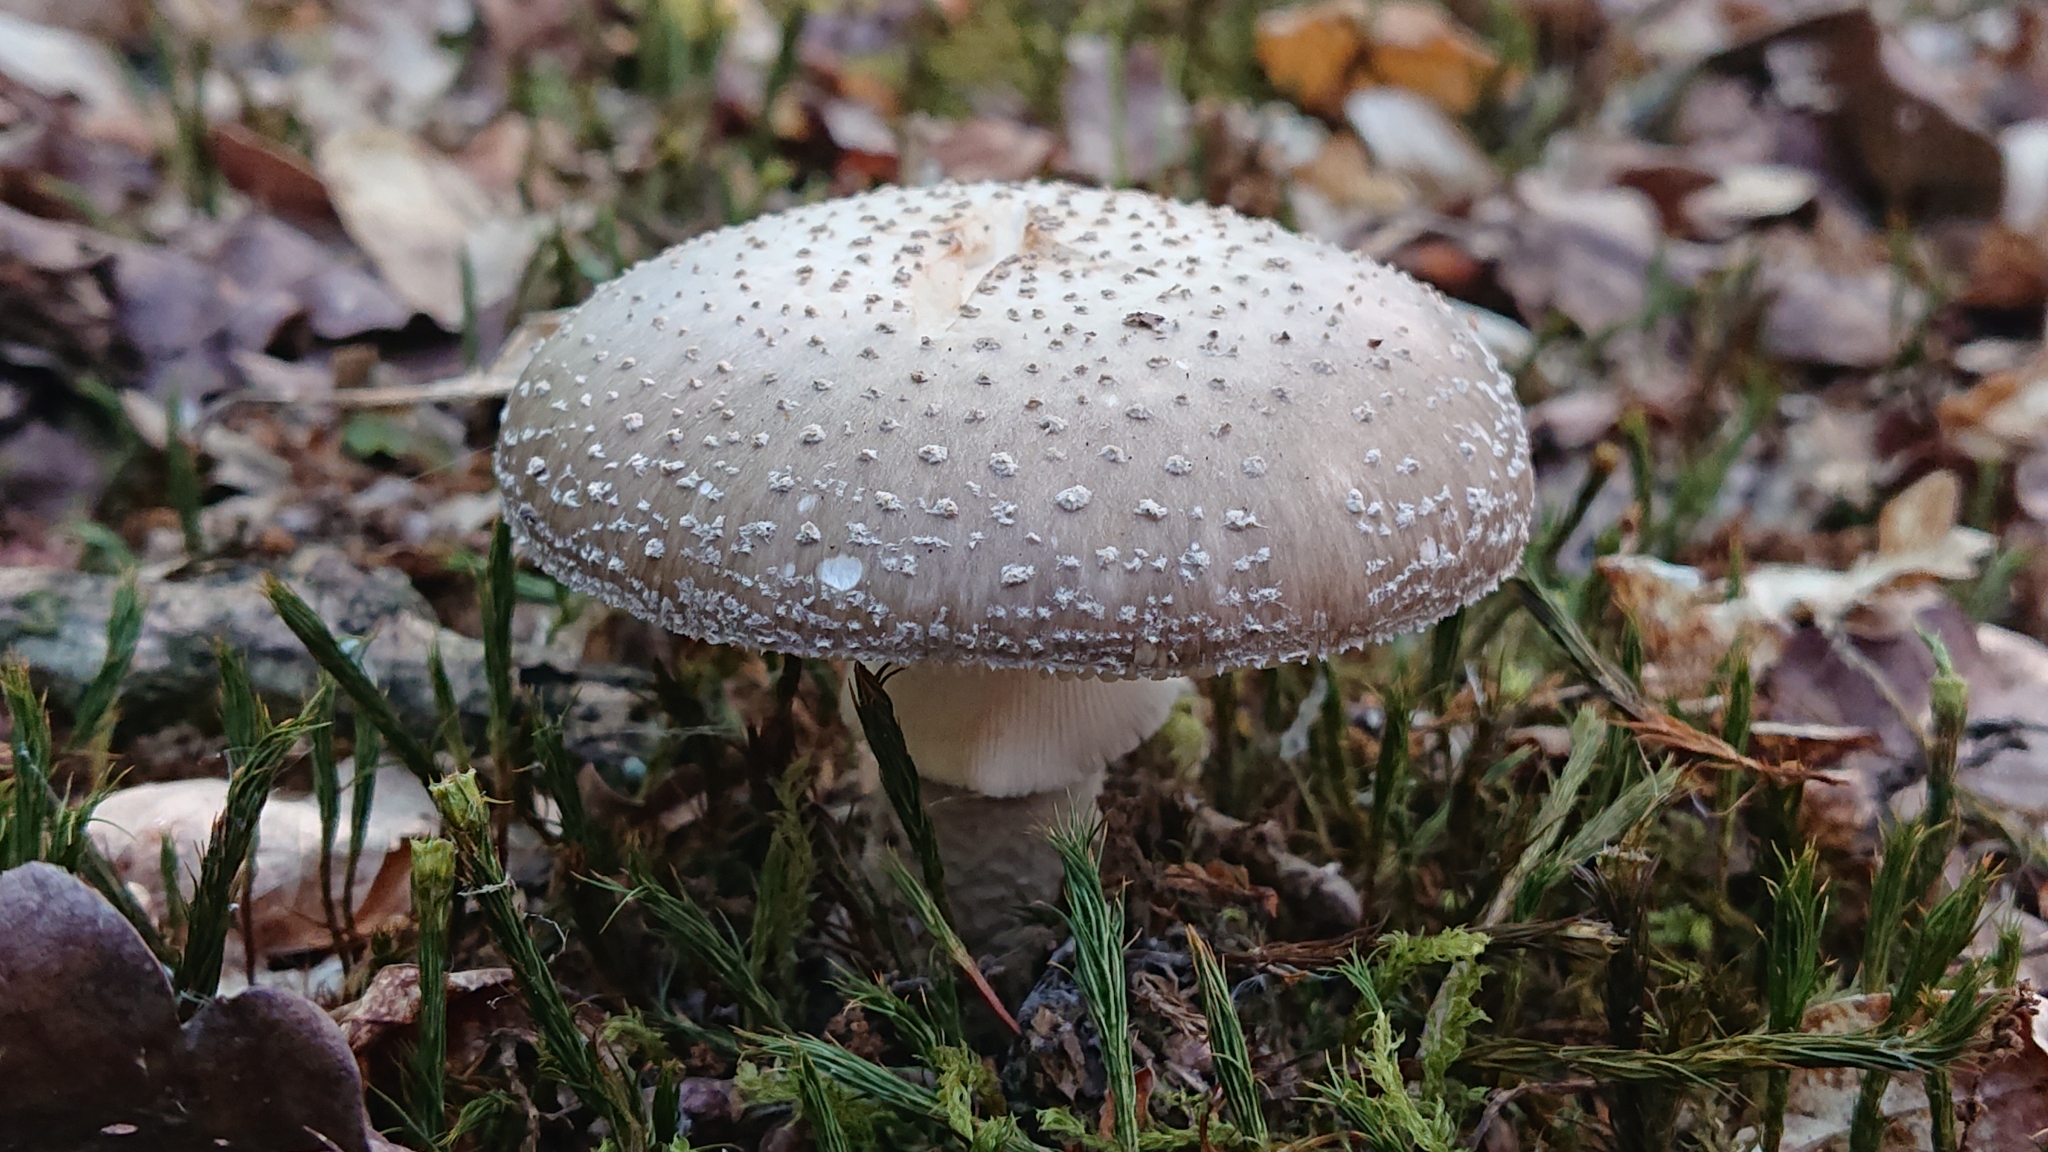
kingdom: Fungi
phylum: Basidiomycota
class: Agaricomycetes
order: Agaricales
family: Amanitaceae
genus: Amanita
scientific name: Amanita excelsa
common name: European false blusher
